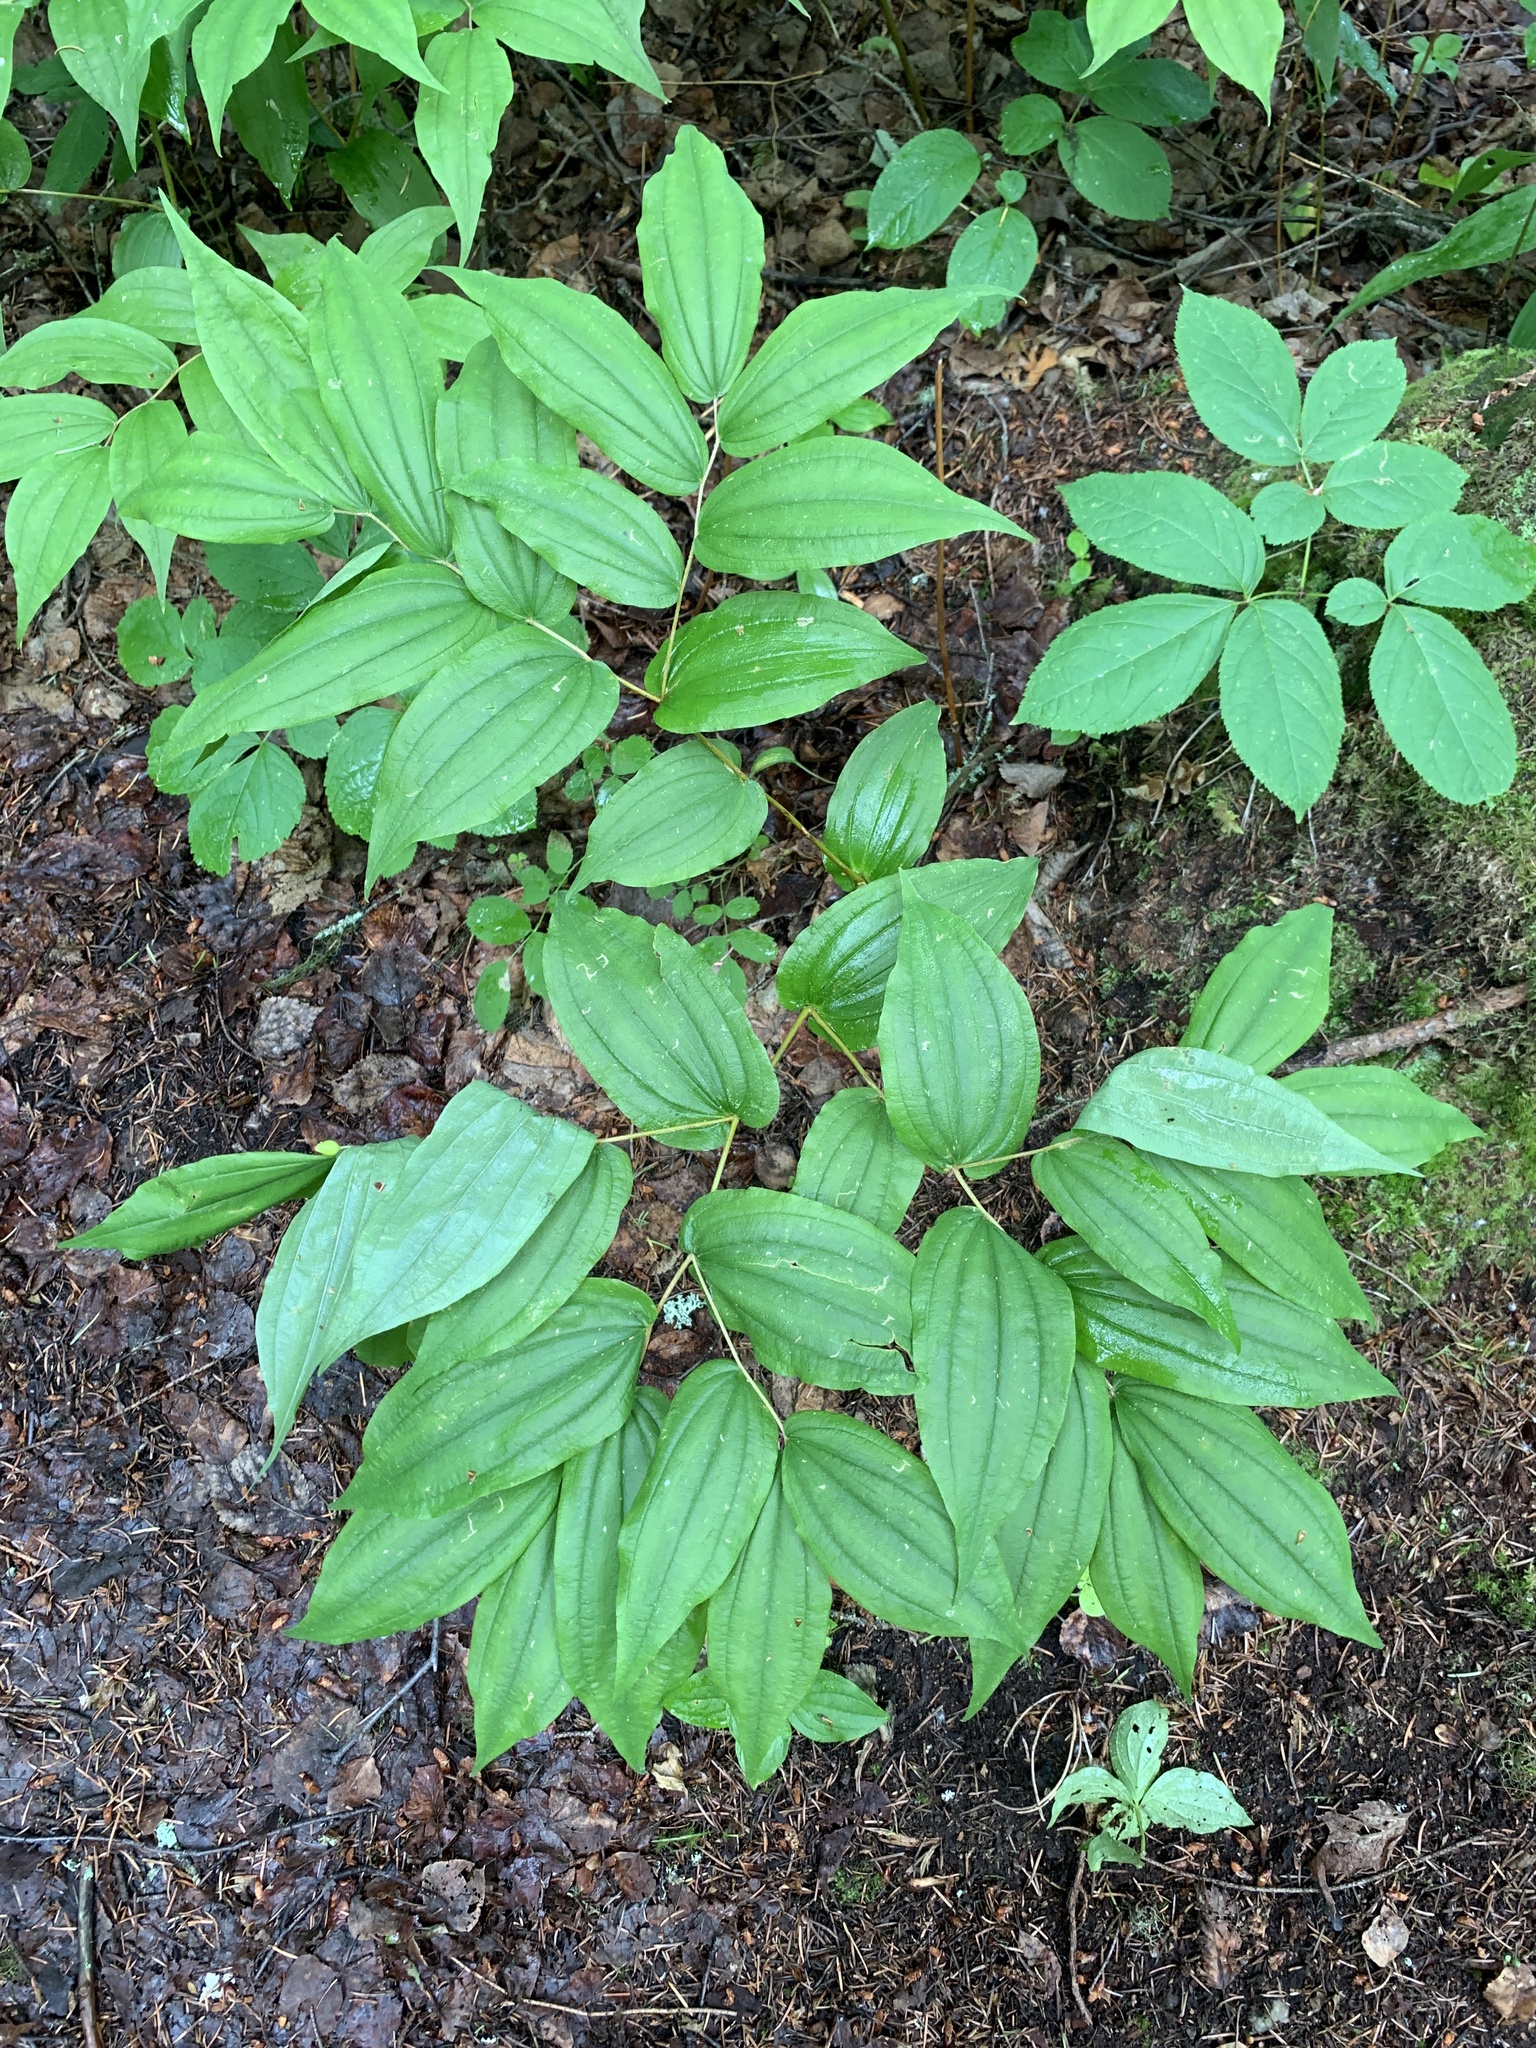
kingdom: Plantae
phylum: Tracheophyta
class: Liliopsida
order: Liliales
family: Liliaceae
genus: Prosartes
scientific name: Prosartes hookeri
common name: Fairy-bells
